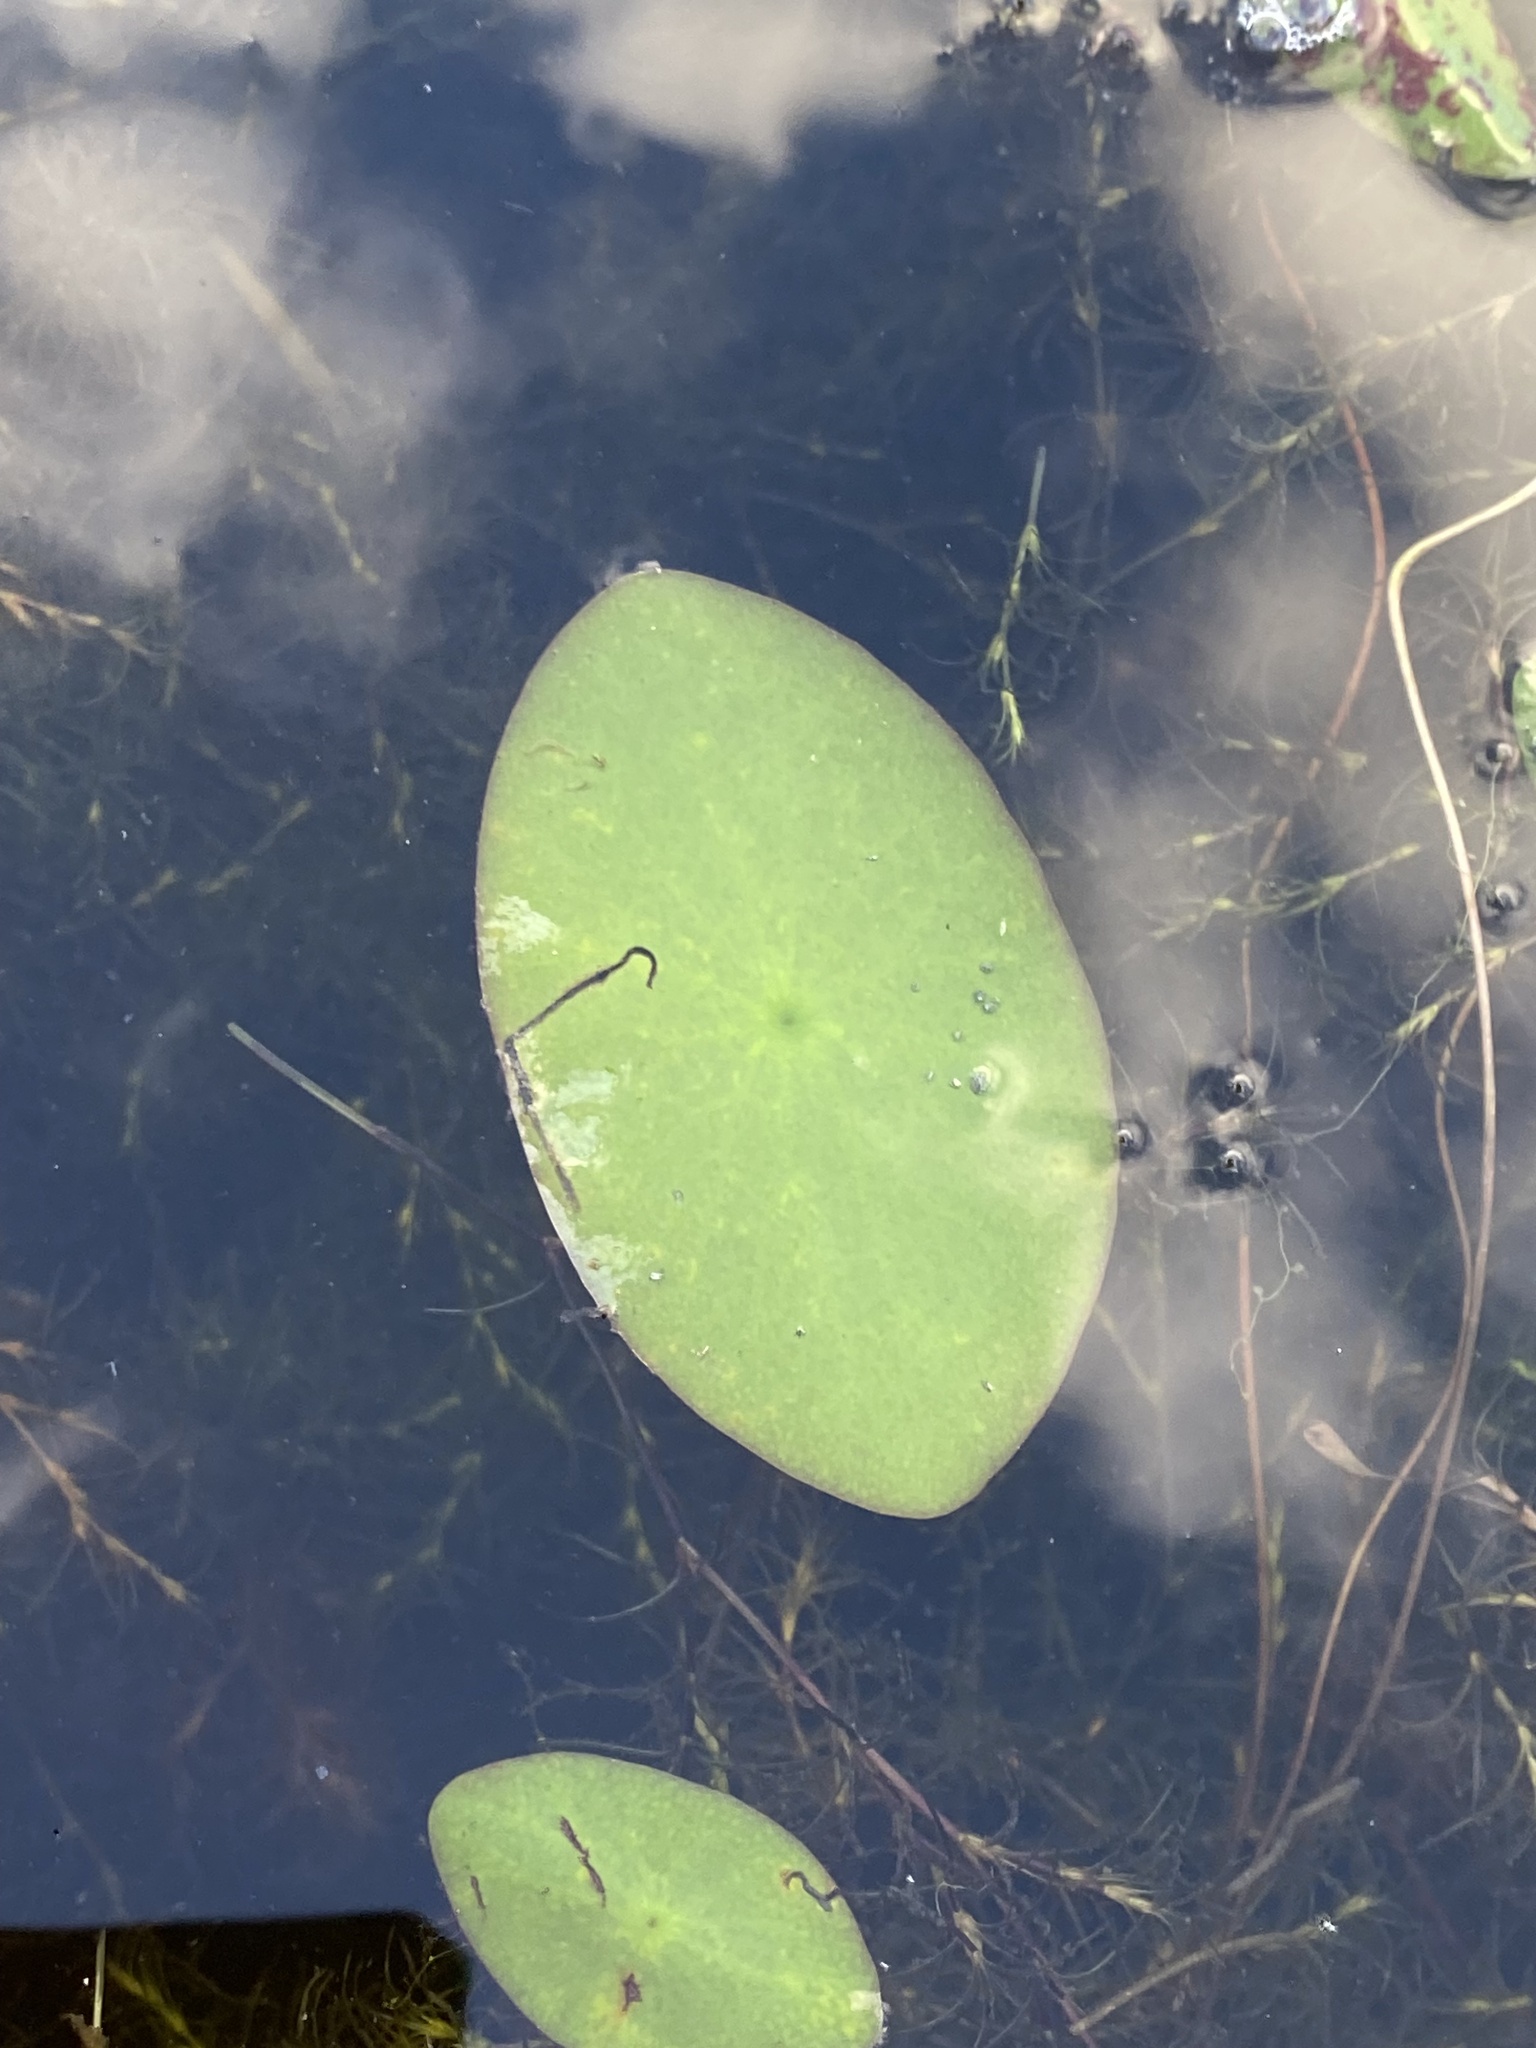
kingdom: Plantae
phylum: Tracheophyta
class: Magnoliopsida
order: Nymphaeales
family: Cabombaceae
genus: Brasenia
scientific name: Brasenia schreberi
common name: Water-shield
